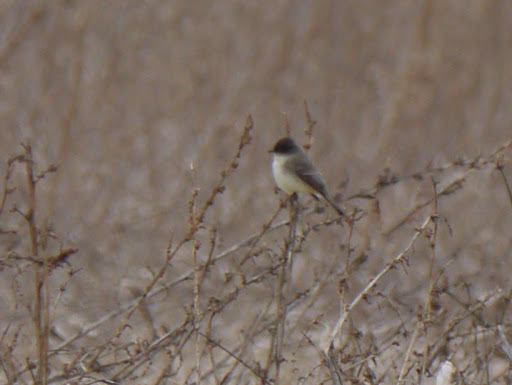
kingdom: Animalia
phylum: Chordata
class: Aves
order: Passeriformes
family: Tyrannidae
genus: Sayornis
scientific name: Sayornis phoebe
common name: Eastern phoebe
